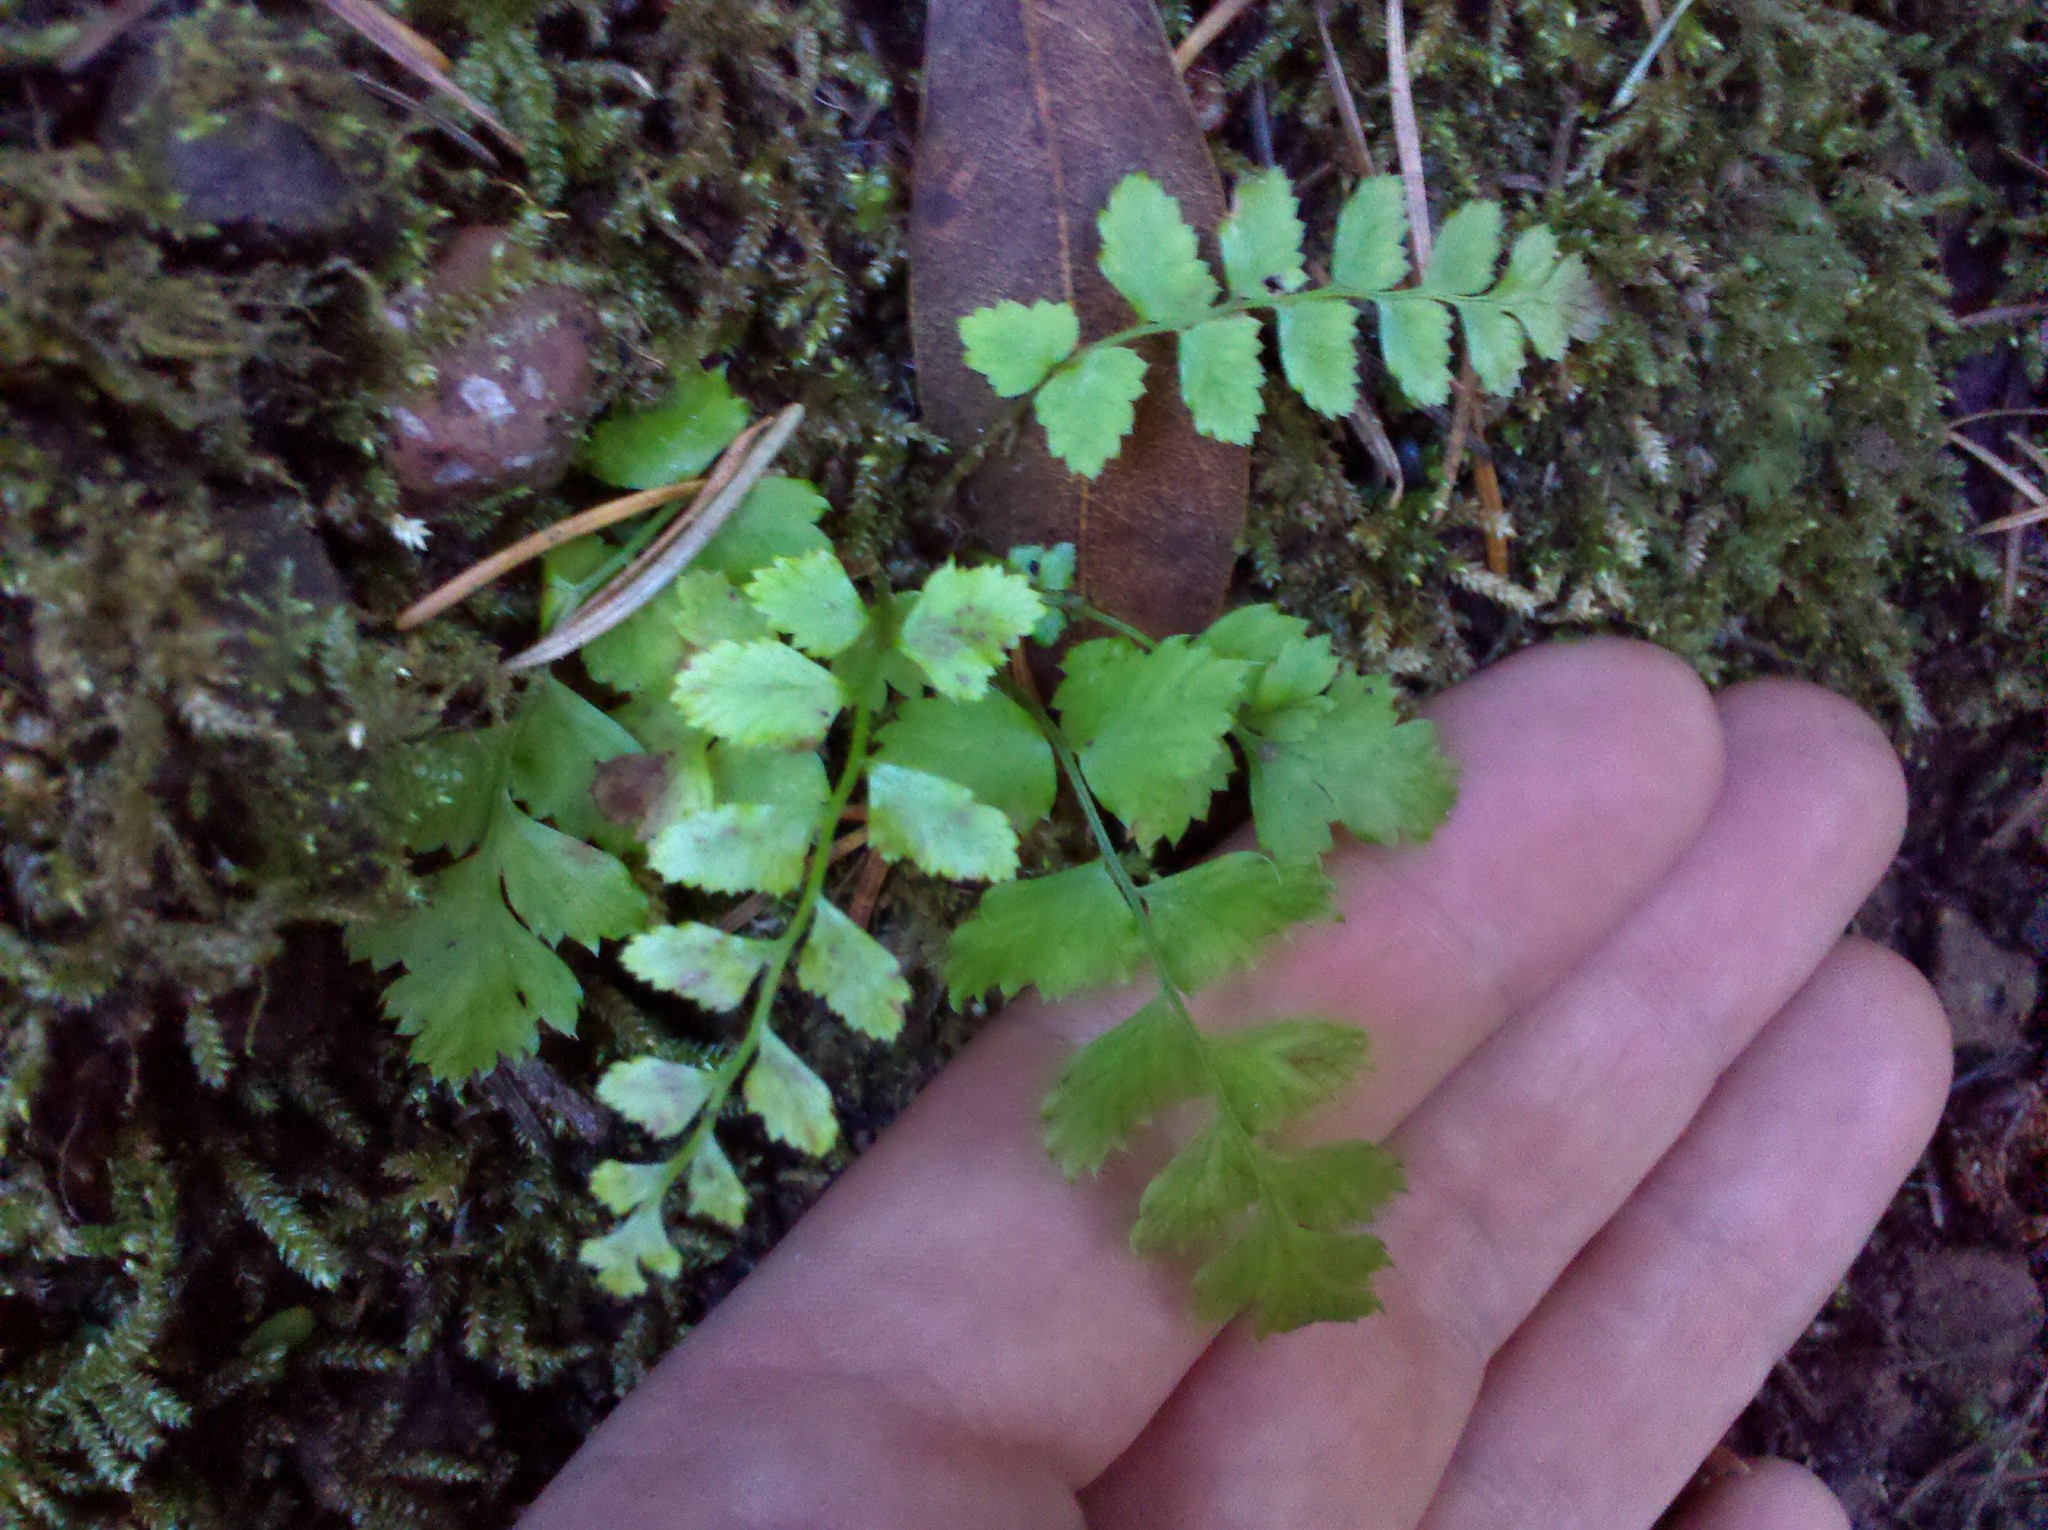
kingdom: Plantae
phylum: Tracheophyta
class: Polypodiopsida
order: Polypodiales
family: Dryopteridaceae
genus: Polystichum
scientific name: Polystichum munitum
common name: Western sword-fern
